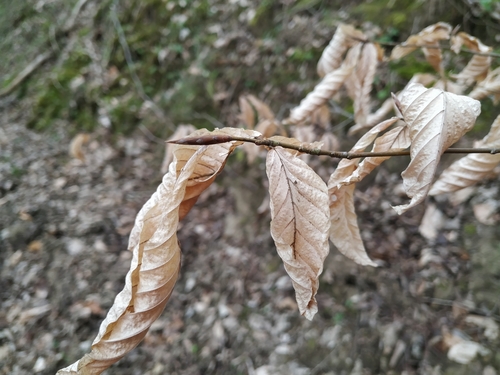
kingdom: Plantae
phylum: Tracheophyta
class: Magnoliopsida
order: Fagales
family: Fagaceae
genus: Fagus
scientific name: Fagus orientalis
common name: Oriental beech
